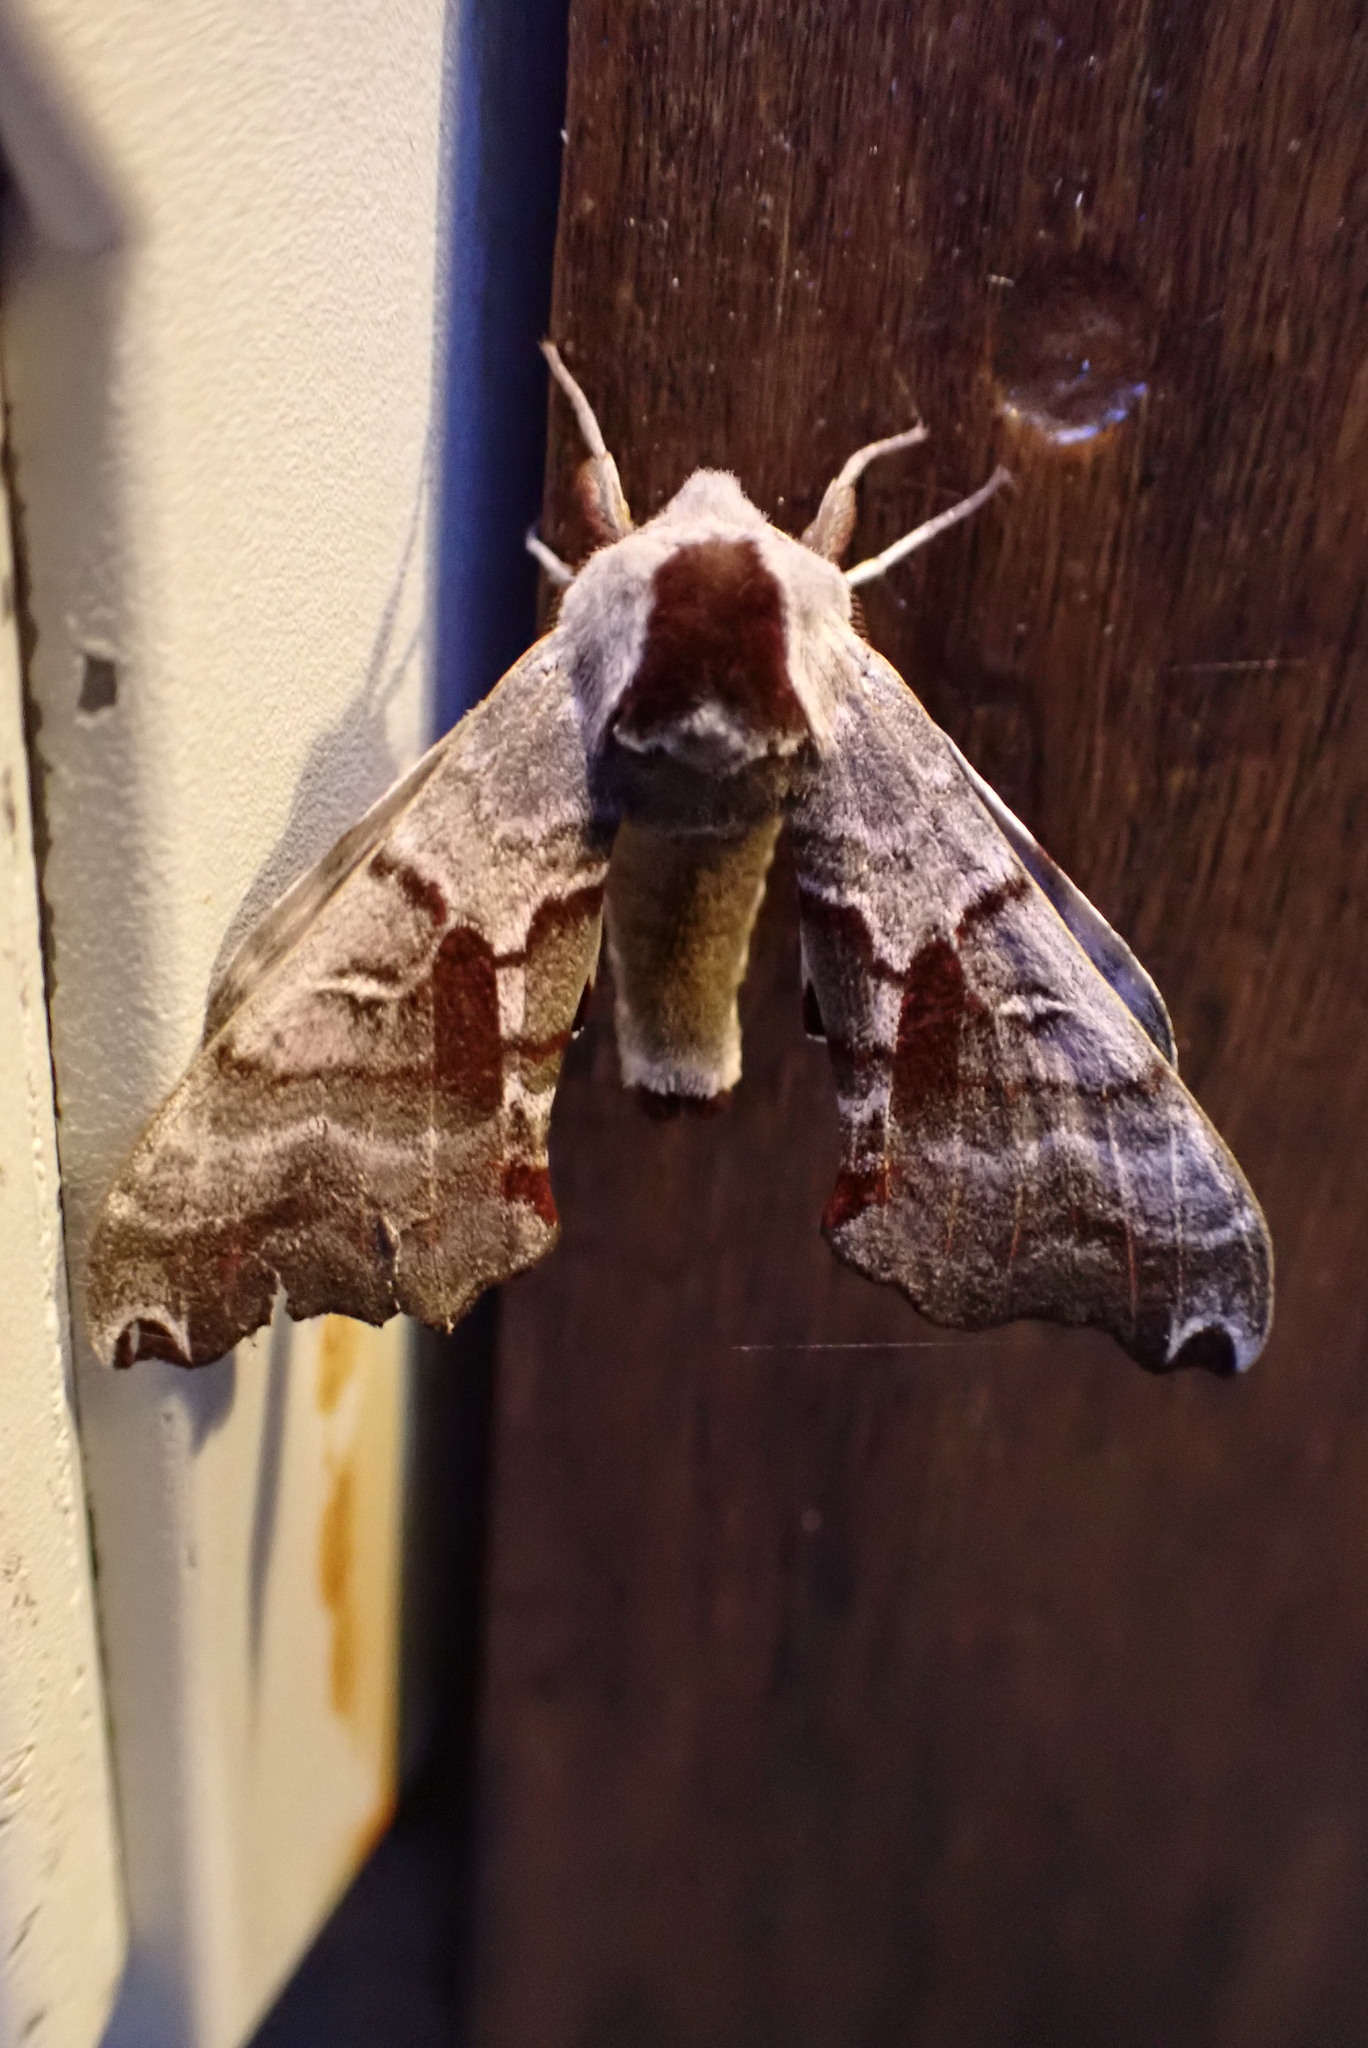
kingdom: Animalia
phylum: Arthropoda
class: Insecta
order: Lepidoptera
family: Sphingidae
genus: Smerinthus
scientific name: Smerinthus jamaicensis
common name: Twin spotted sphinx
